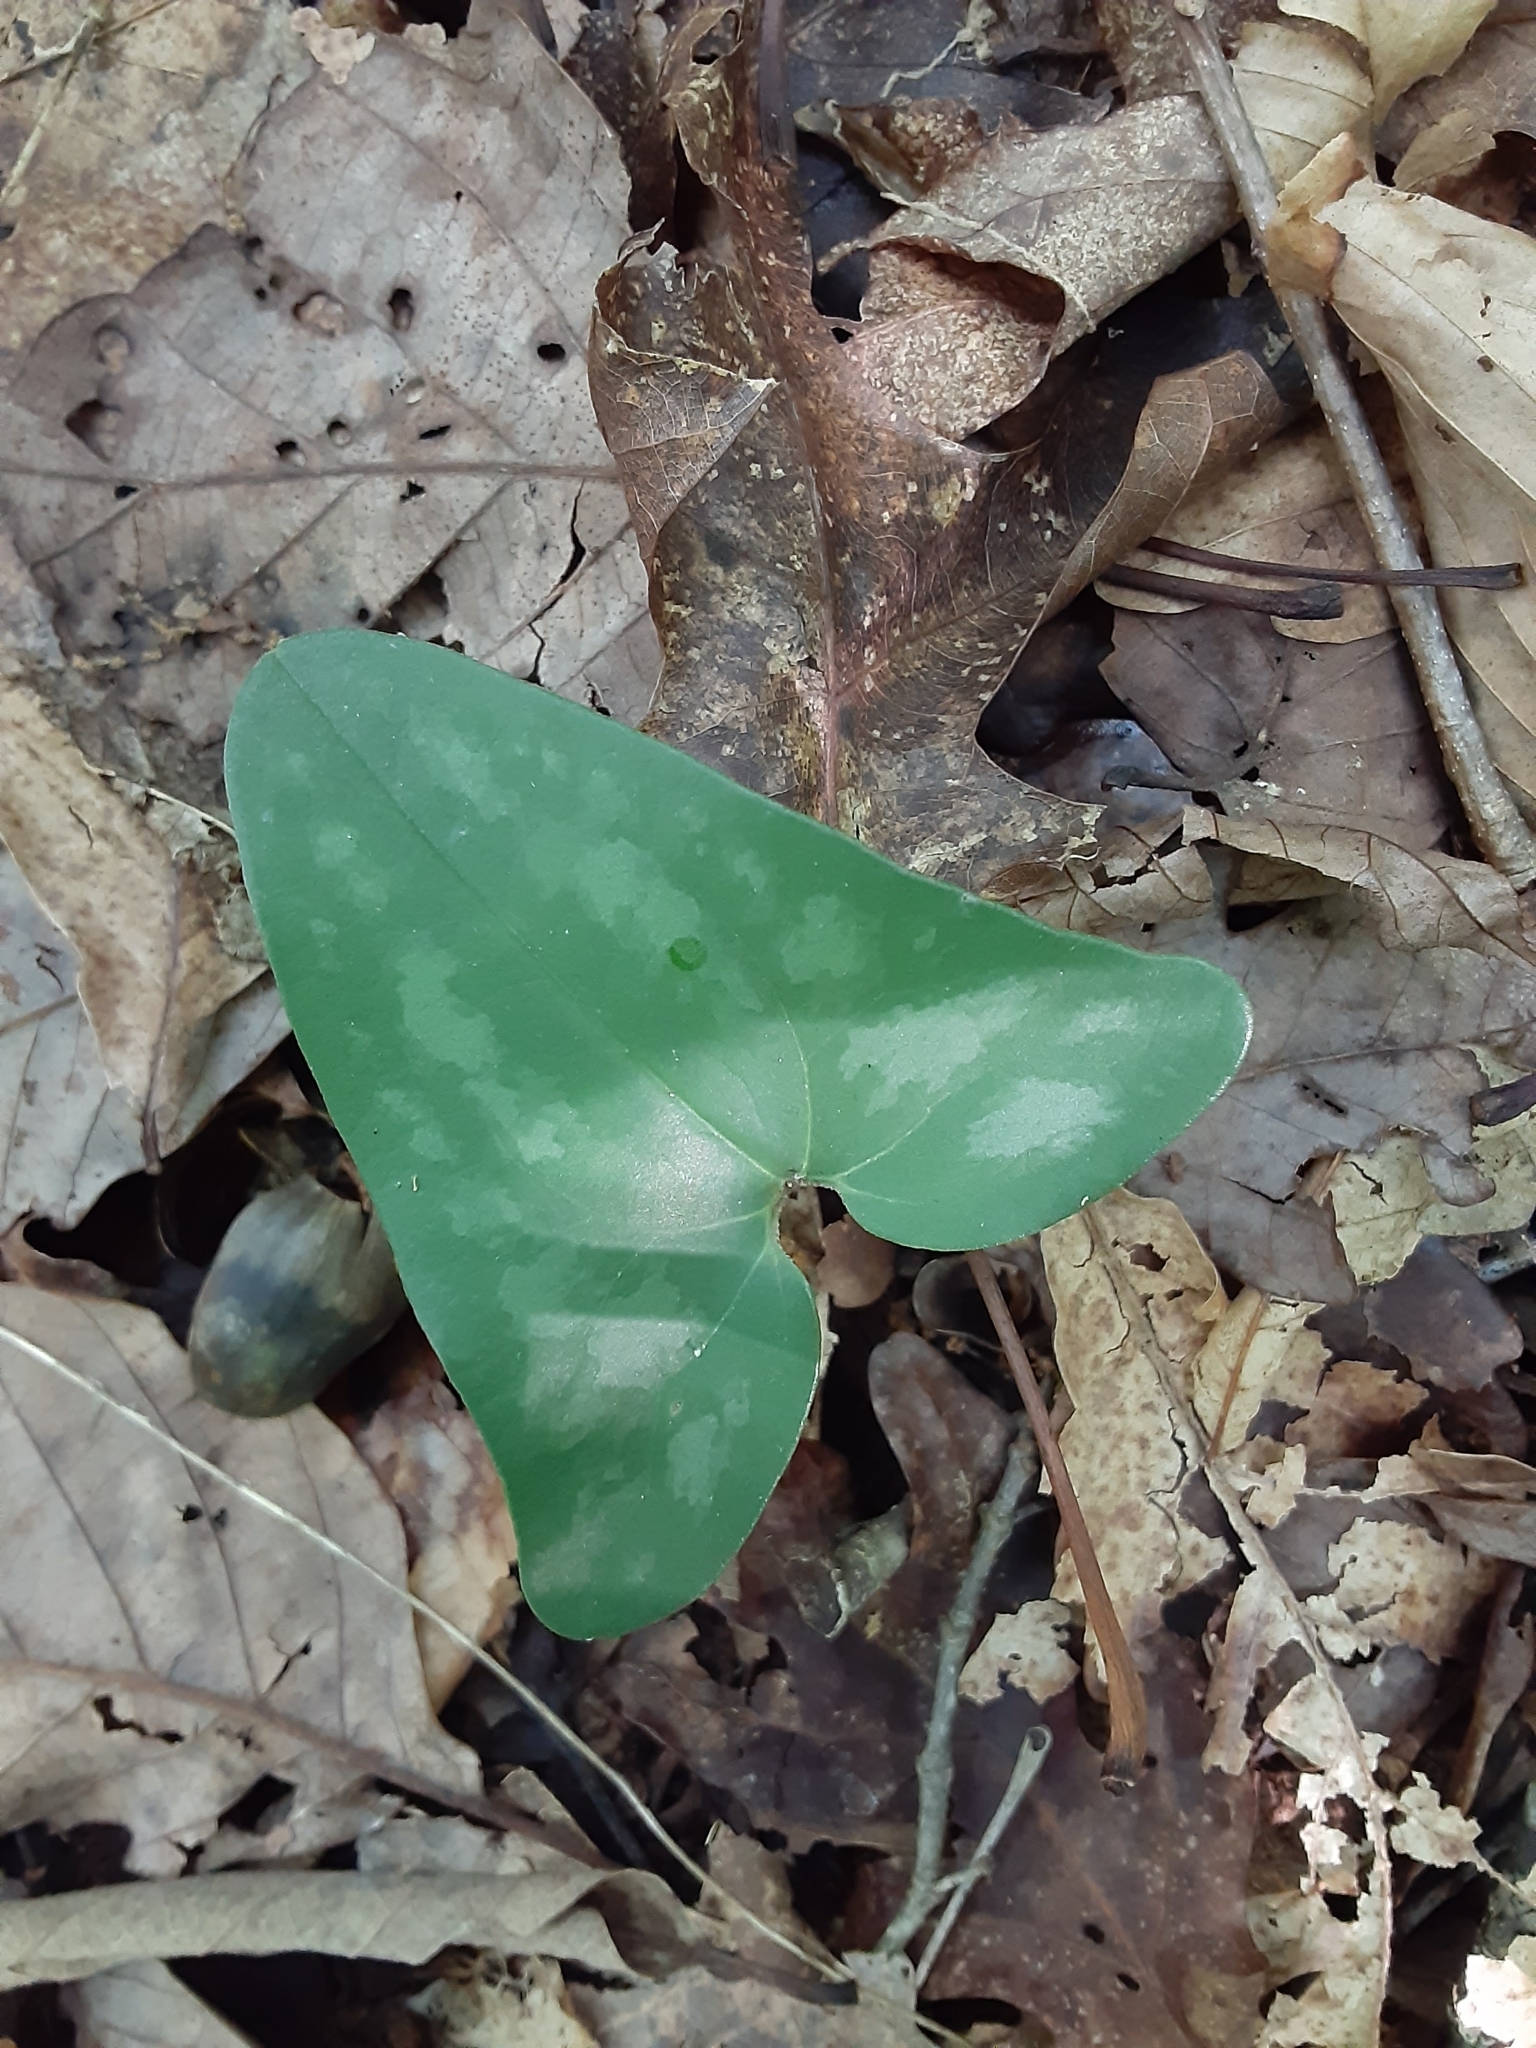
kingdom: Plantae
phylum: Tracheophyta
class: Magnoliopsida
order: Piperales
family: Aristolochiaceae
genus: Hexastylis
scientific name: Hexastylis arifolia
